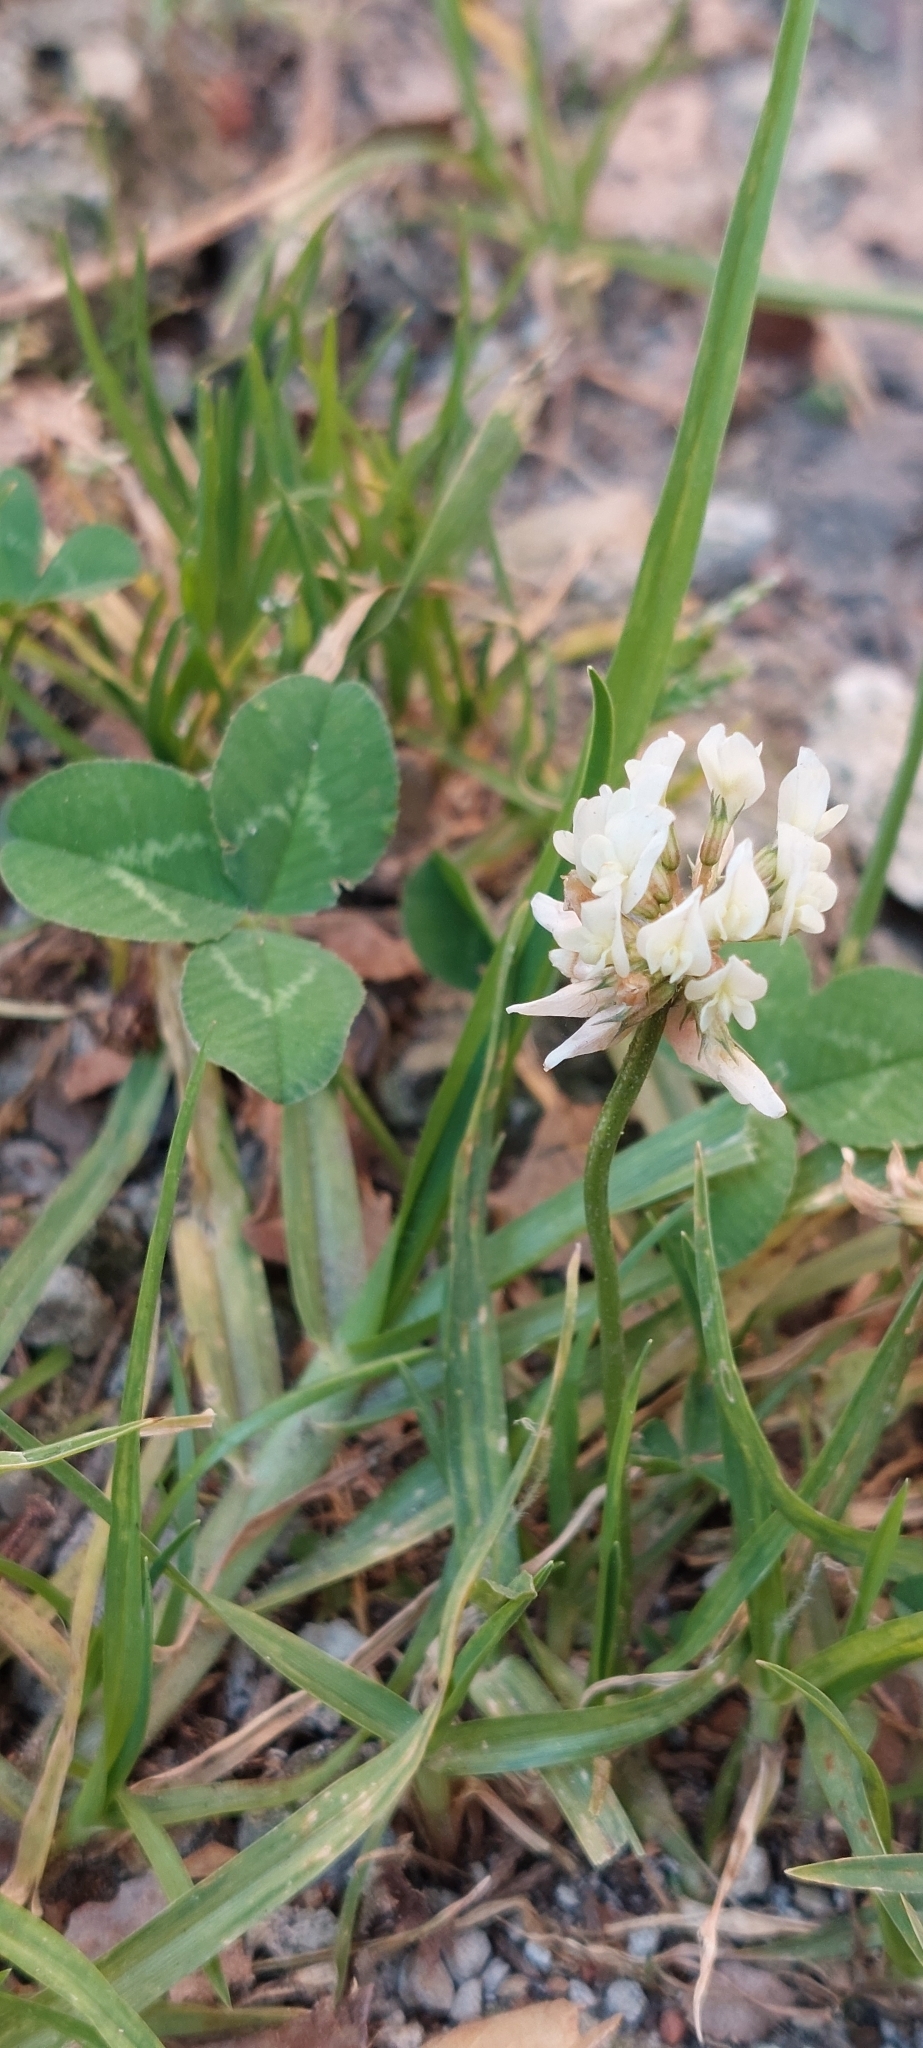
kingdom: Plantae
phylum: Tracheophyta
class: Magnoliopsida
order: Fabales
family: Fabaceae
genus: Trifolium
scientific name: Trifolium repens
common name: White clover
